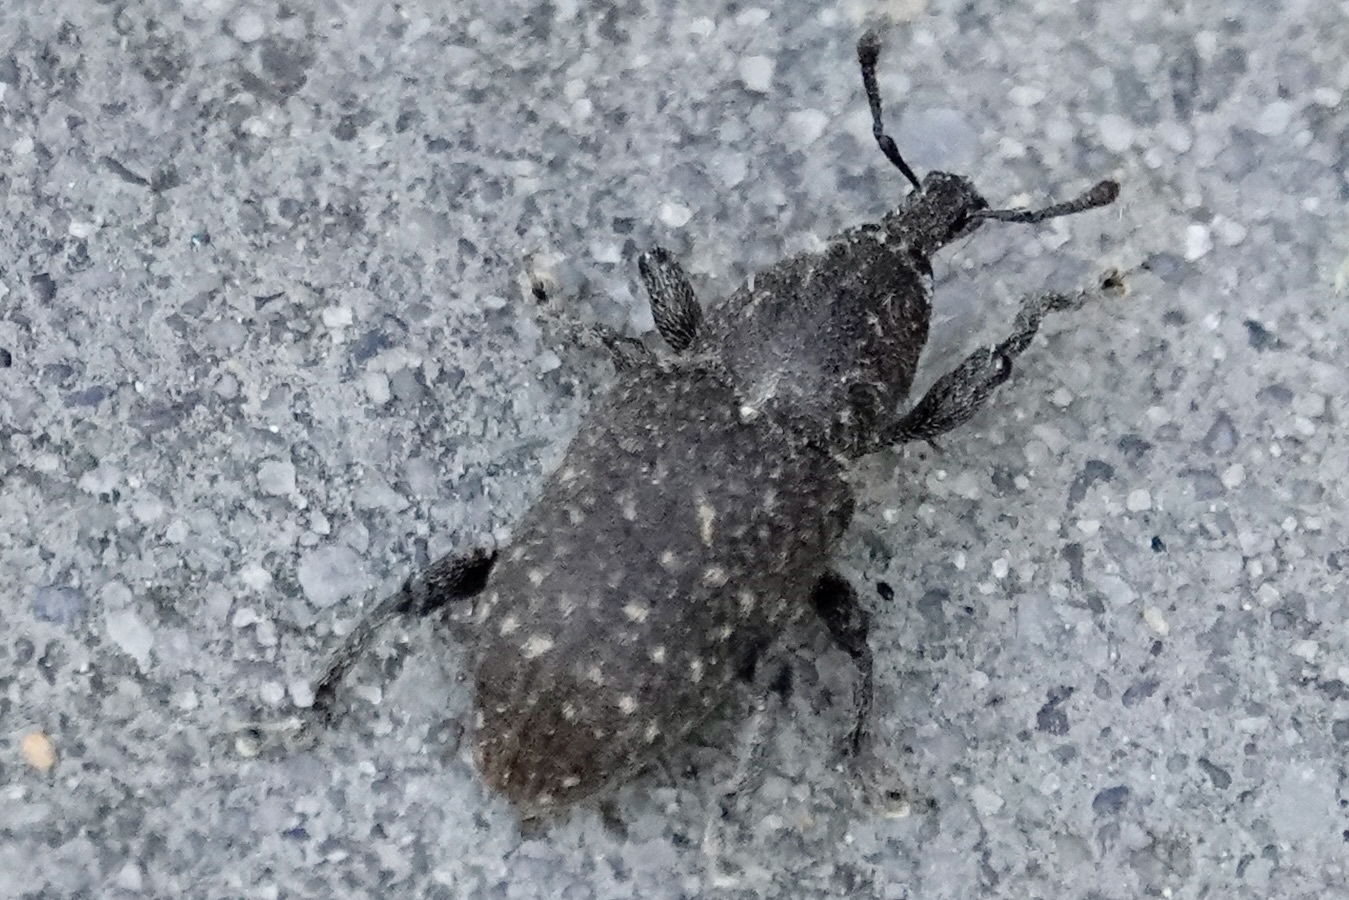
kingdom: Animalia
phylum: Arthropoda
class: Insecta
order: Coleoptera
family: Curculionidae
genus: Pachylobius
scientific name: Pachylobius picivorus
